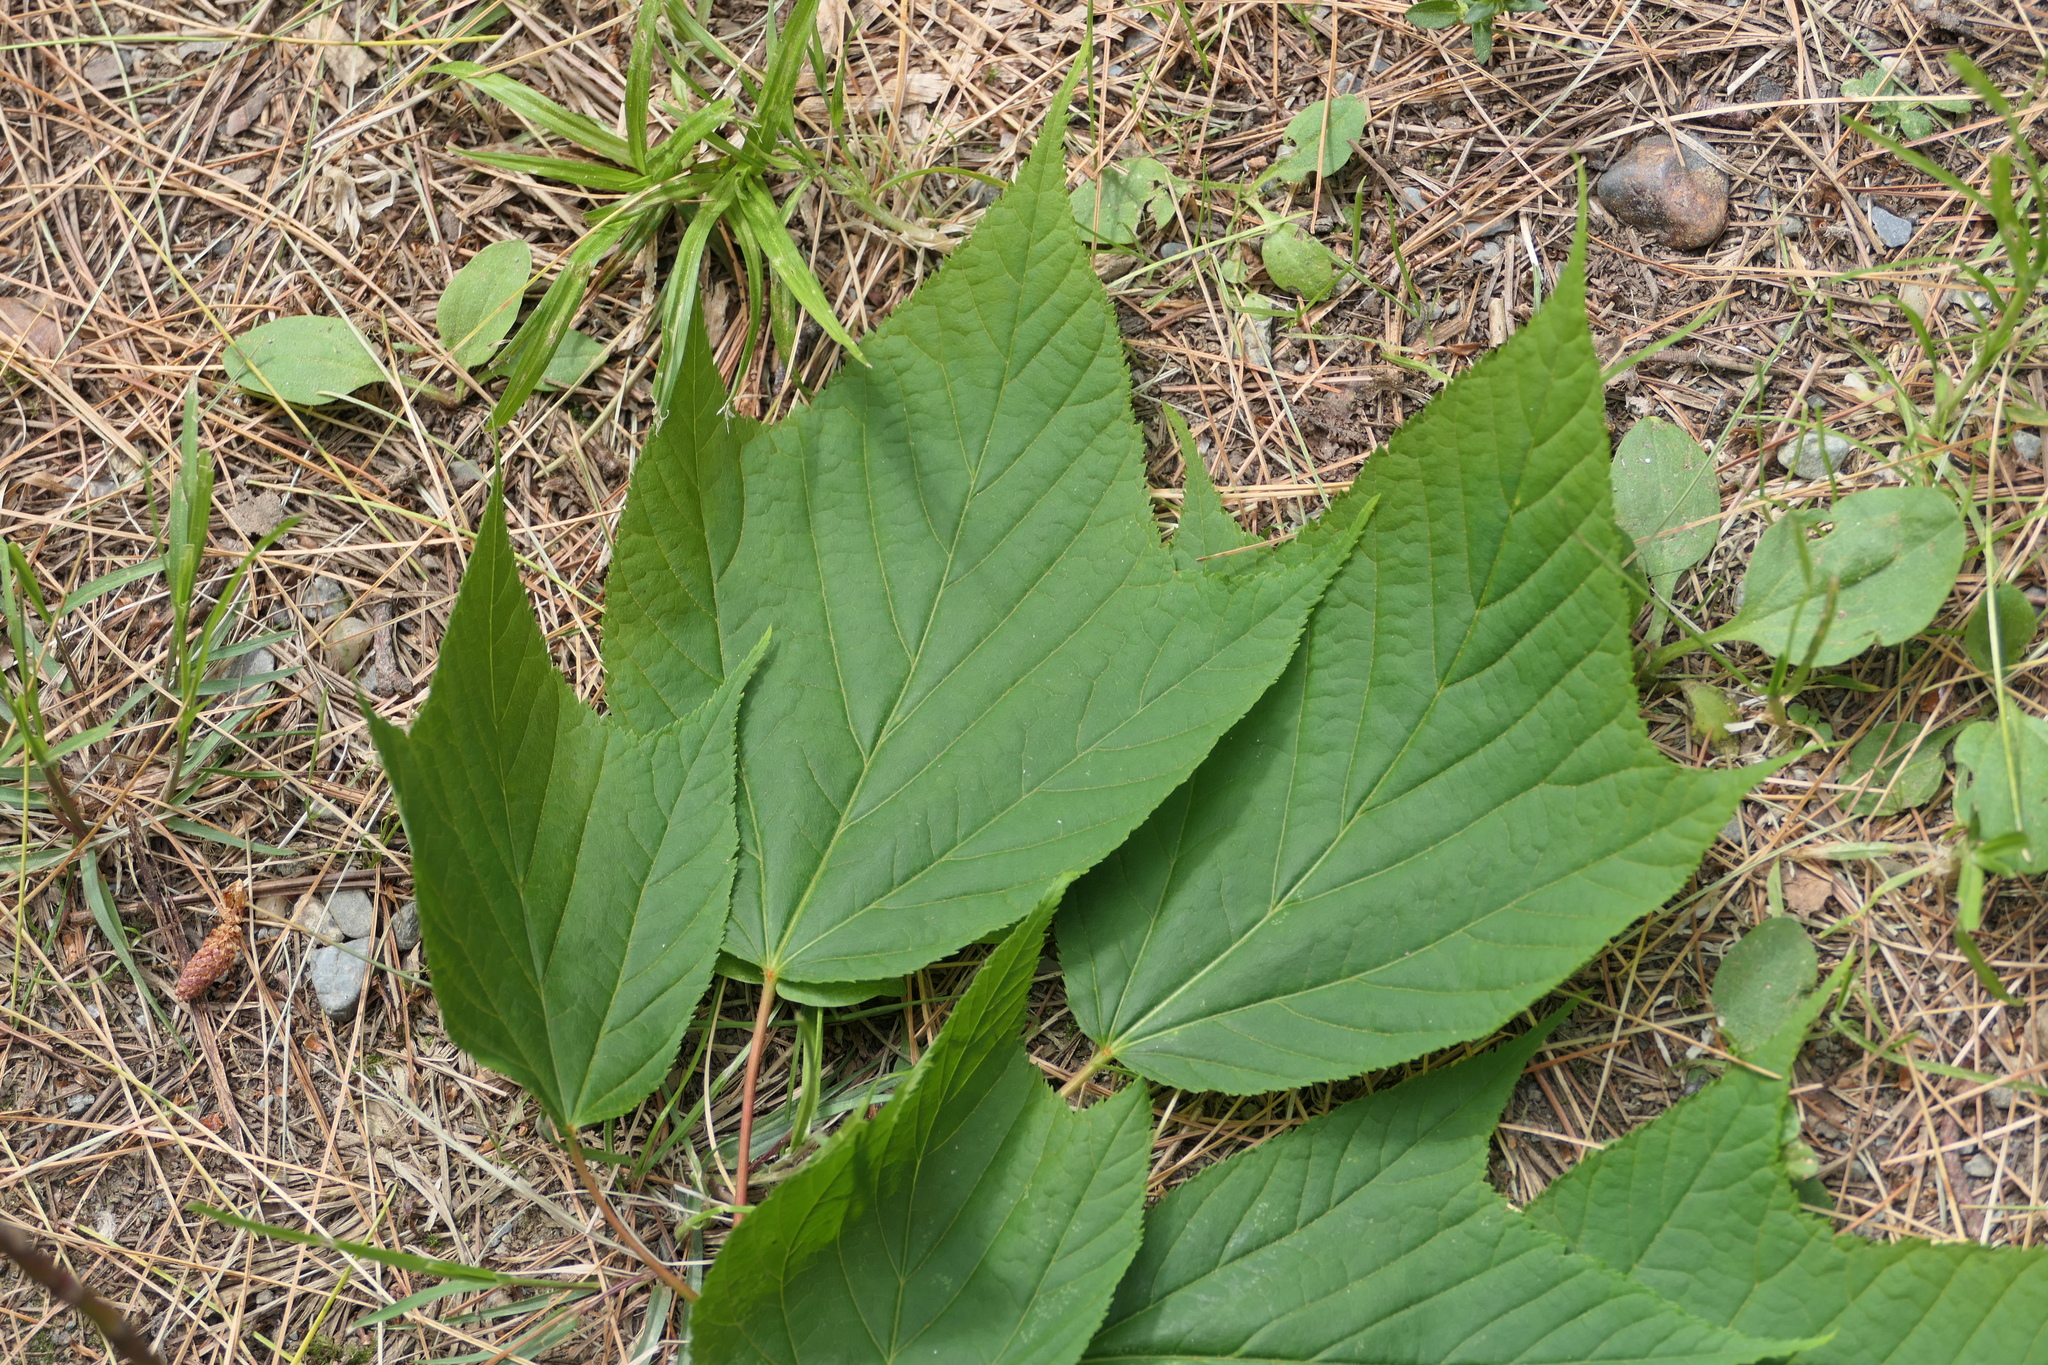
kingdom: Plantae
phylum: Tracheophyta
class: Magnoliopsida
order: Sapindales
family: Sapindaceae
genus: Acer
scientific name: Acer pensylvanicum
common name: Moosewood
